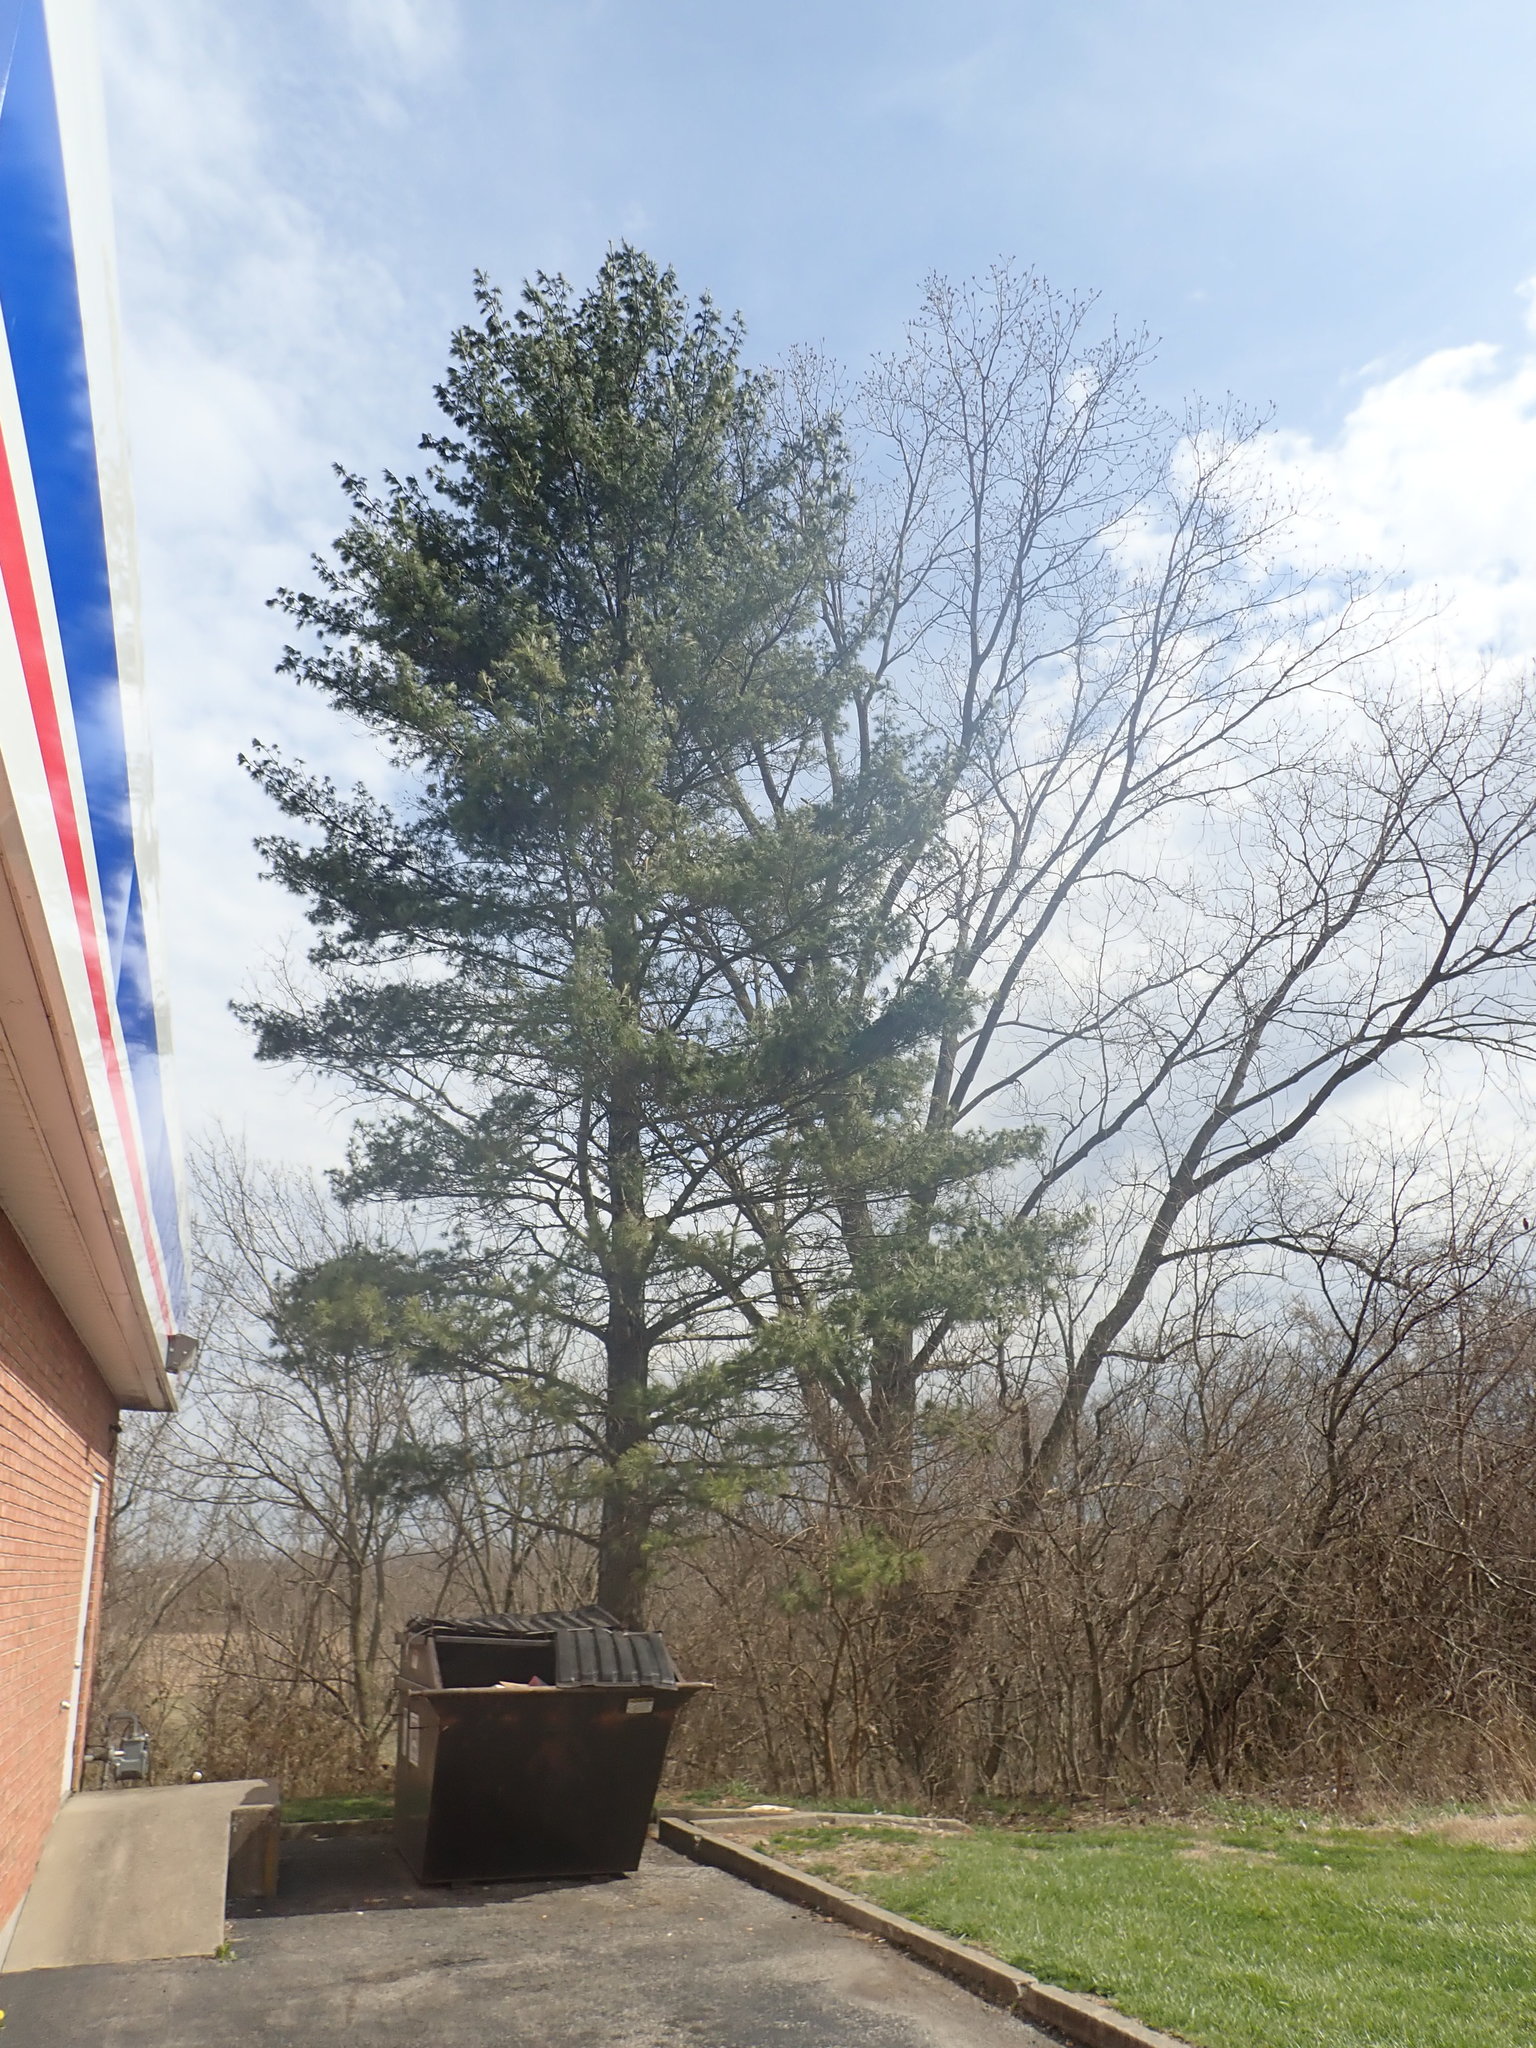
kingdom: Plantae
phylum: Tracheophyta
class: Pinopsida
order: Pinales
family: Pinaceae
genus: Pinus
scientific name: Pinus strobus
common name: Weymouth pine
